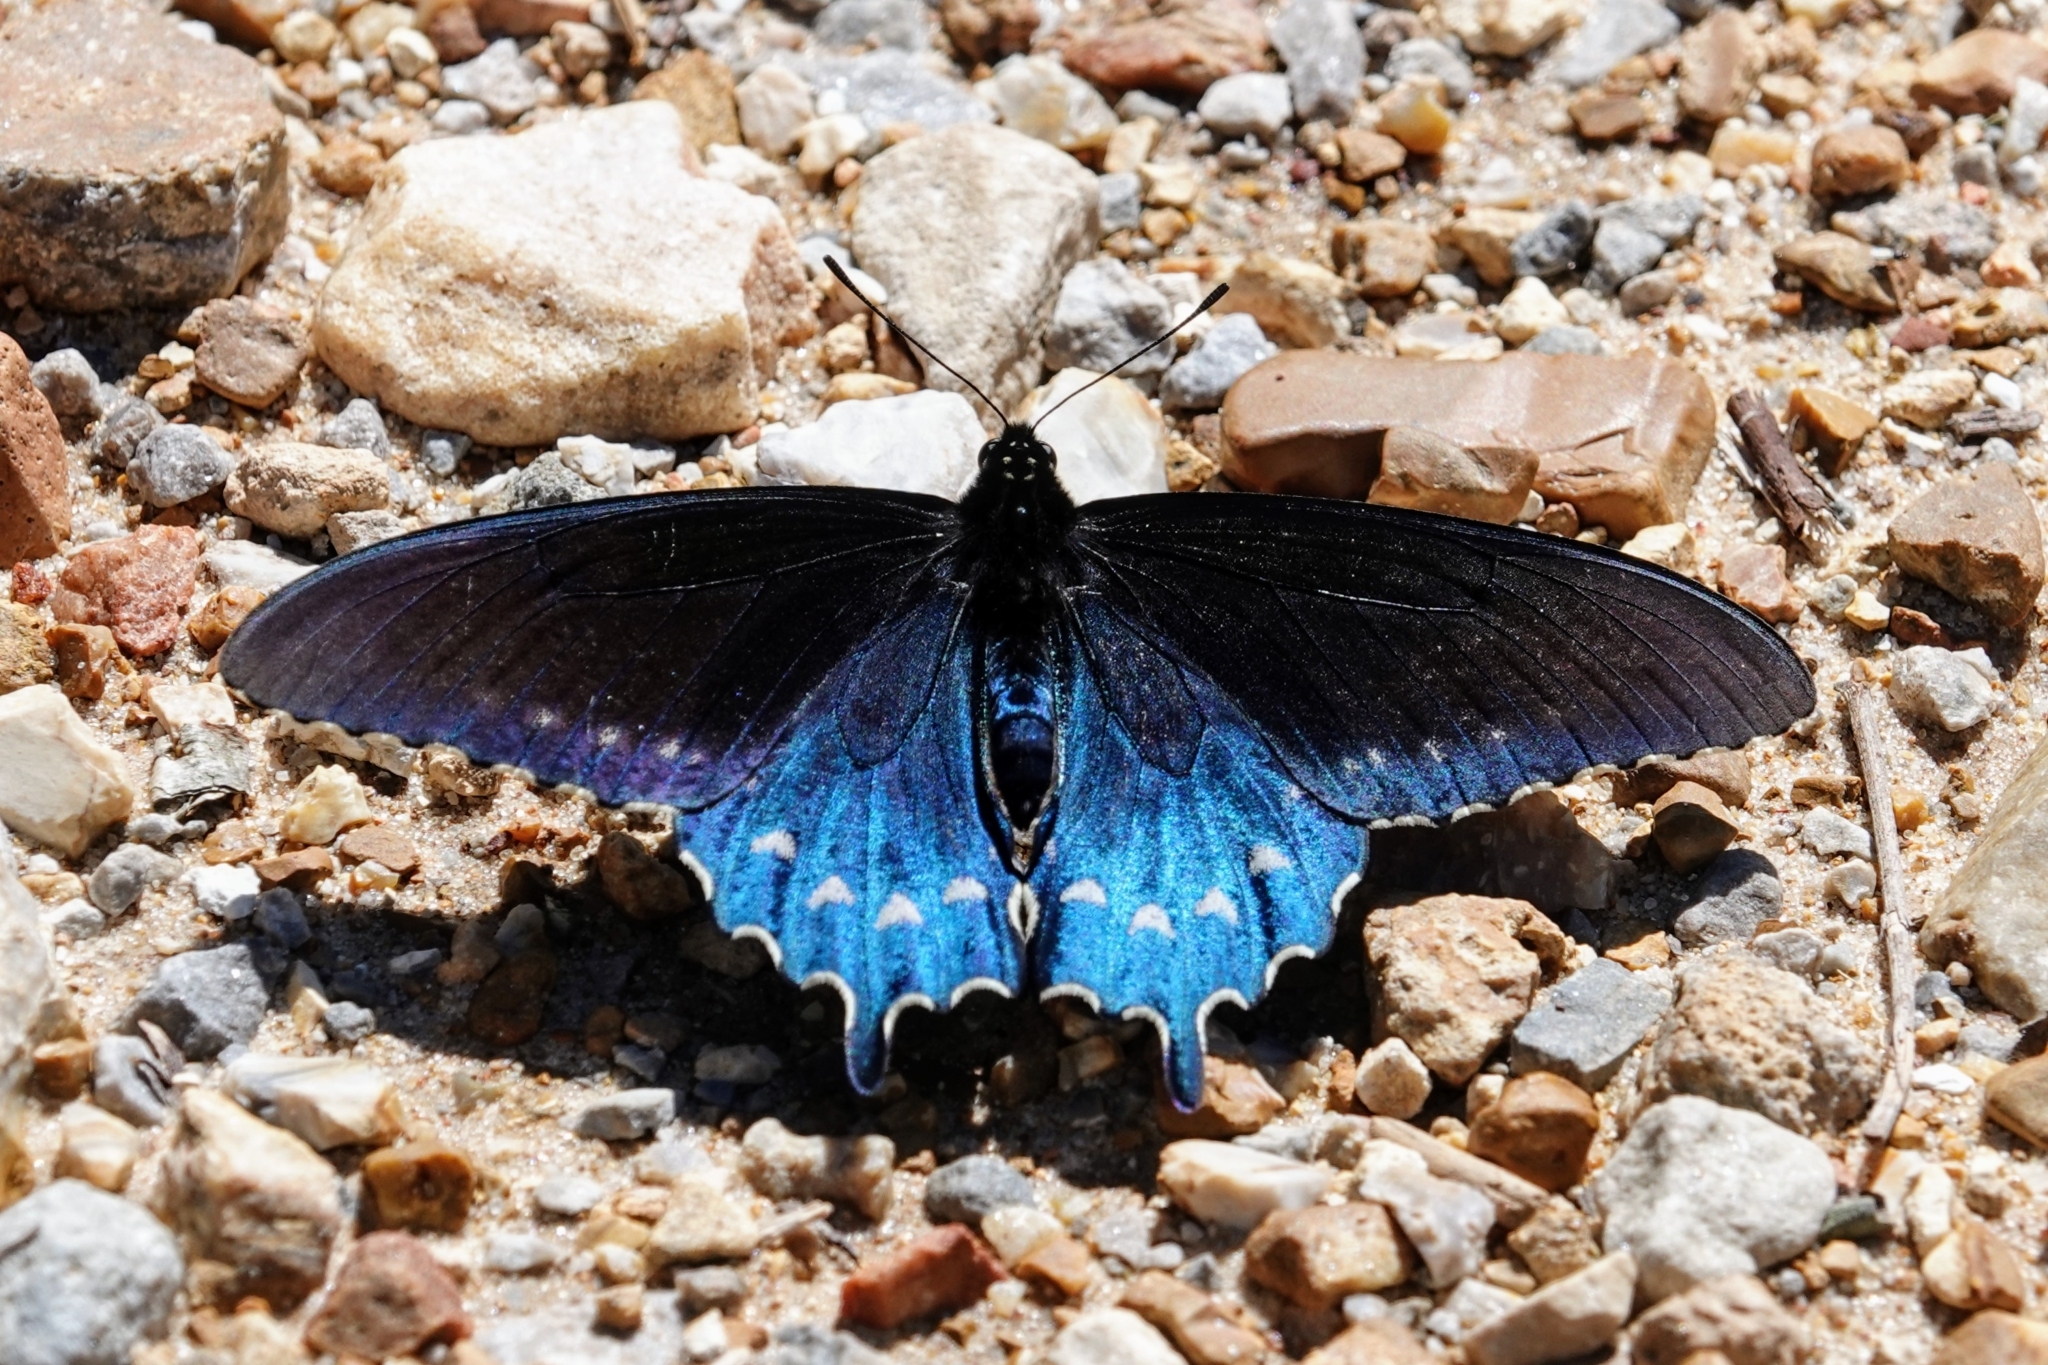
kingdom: Animalia
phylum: Arthropoda
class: Insecta
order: Lepidoptera
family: Papilionidae
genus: Battus
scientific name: Battus philenor
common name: Pipevine swallowtail
